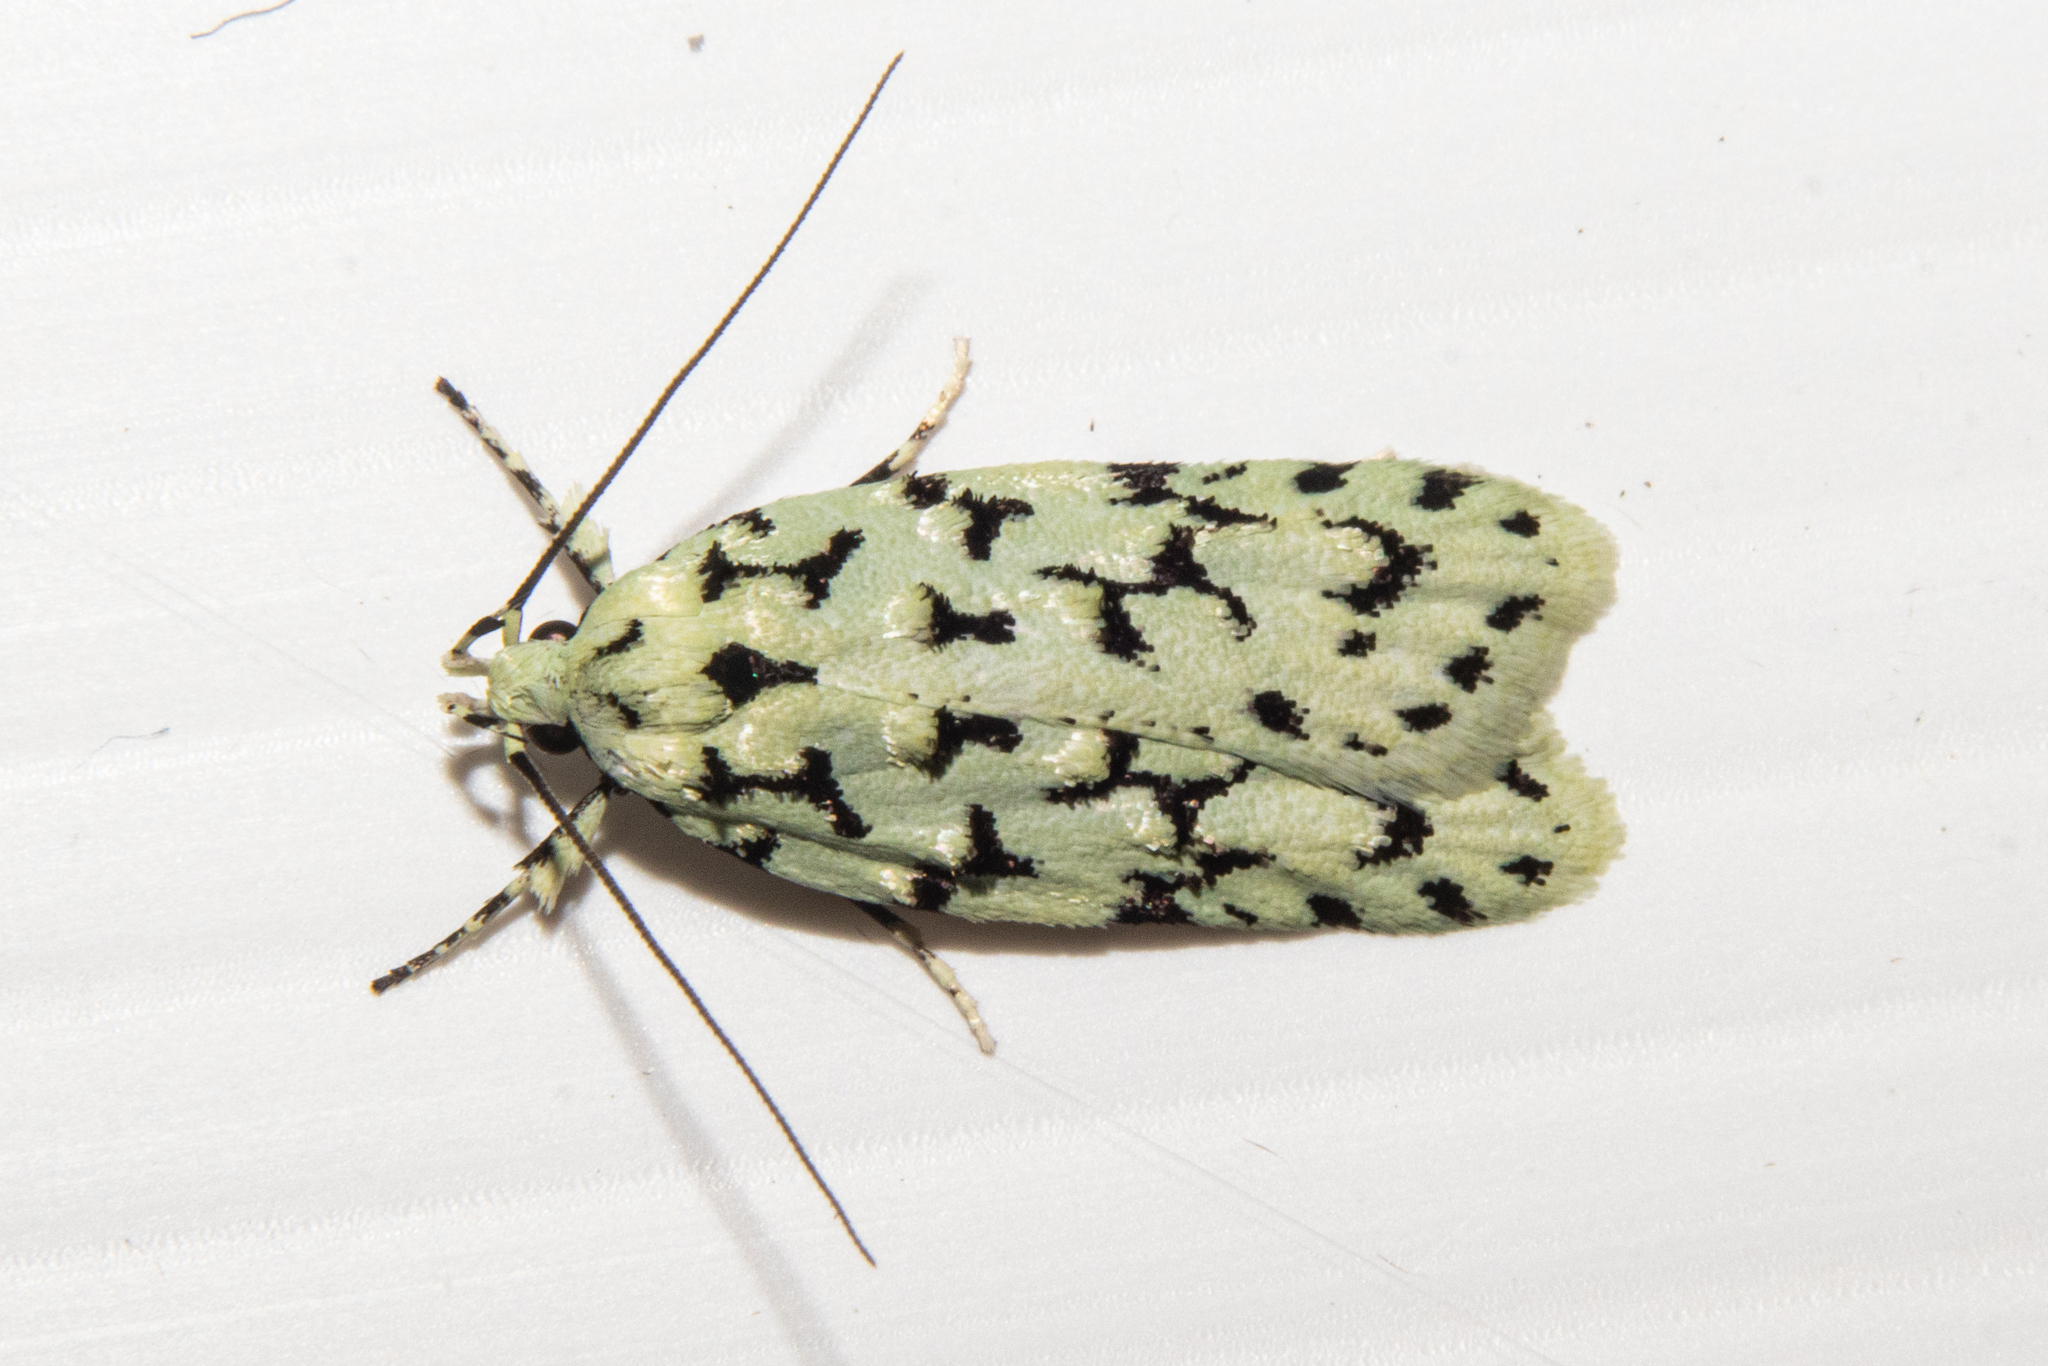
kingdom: Animalia
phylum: Arthropoda
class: Insecta
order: Lepidoptera
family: Oecophoridae
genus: Izatha
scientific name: Izatha huttoni
